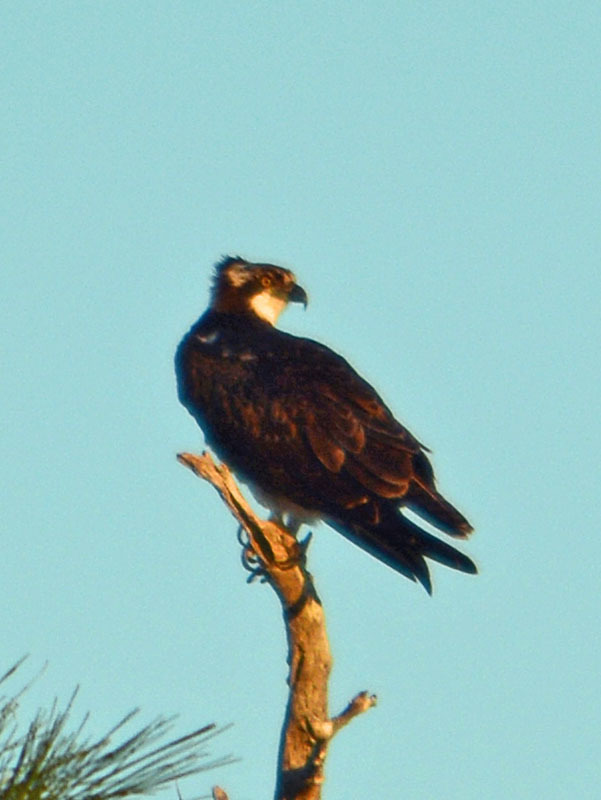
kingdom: Animalia
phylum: Chordata
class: Aves
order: Accipitriformes
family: Pandionidae
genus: Pandion
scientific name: Pandion haliaetus
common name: Osprey
